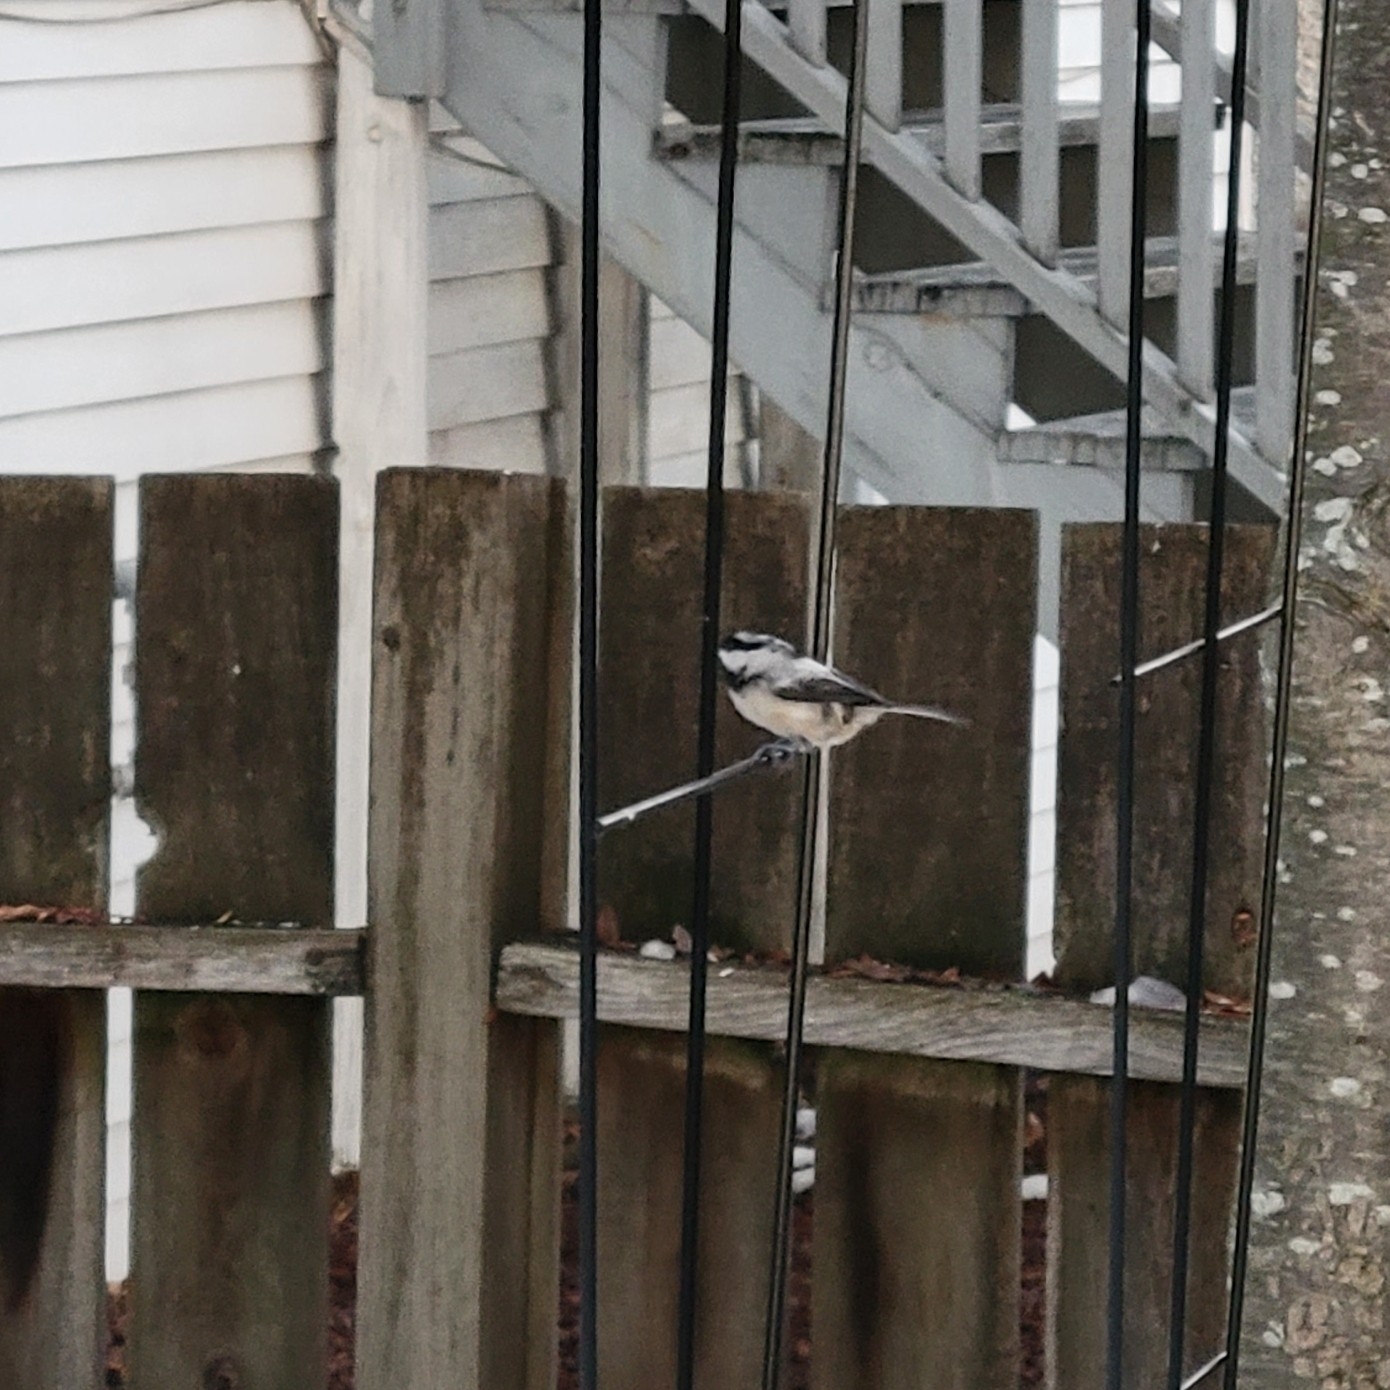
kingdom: Animalia
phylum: Chordata
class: Aves
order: Passeriformes
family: Paridae
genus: Poecile
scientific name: Poecile atricapillus
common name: Black-capped chickadee
